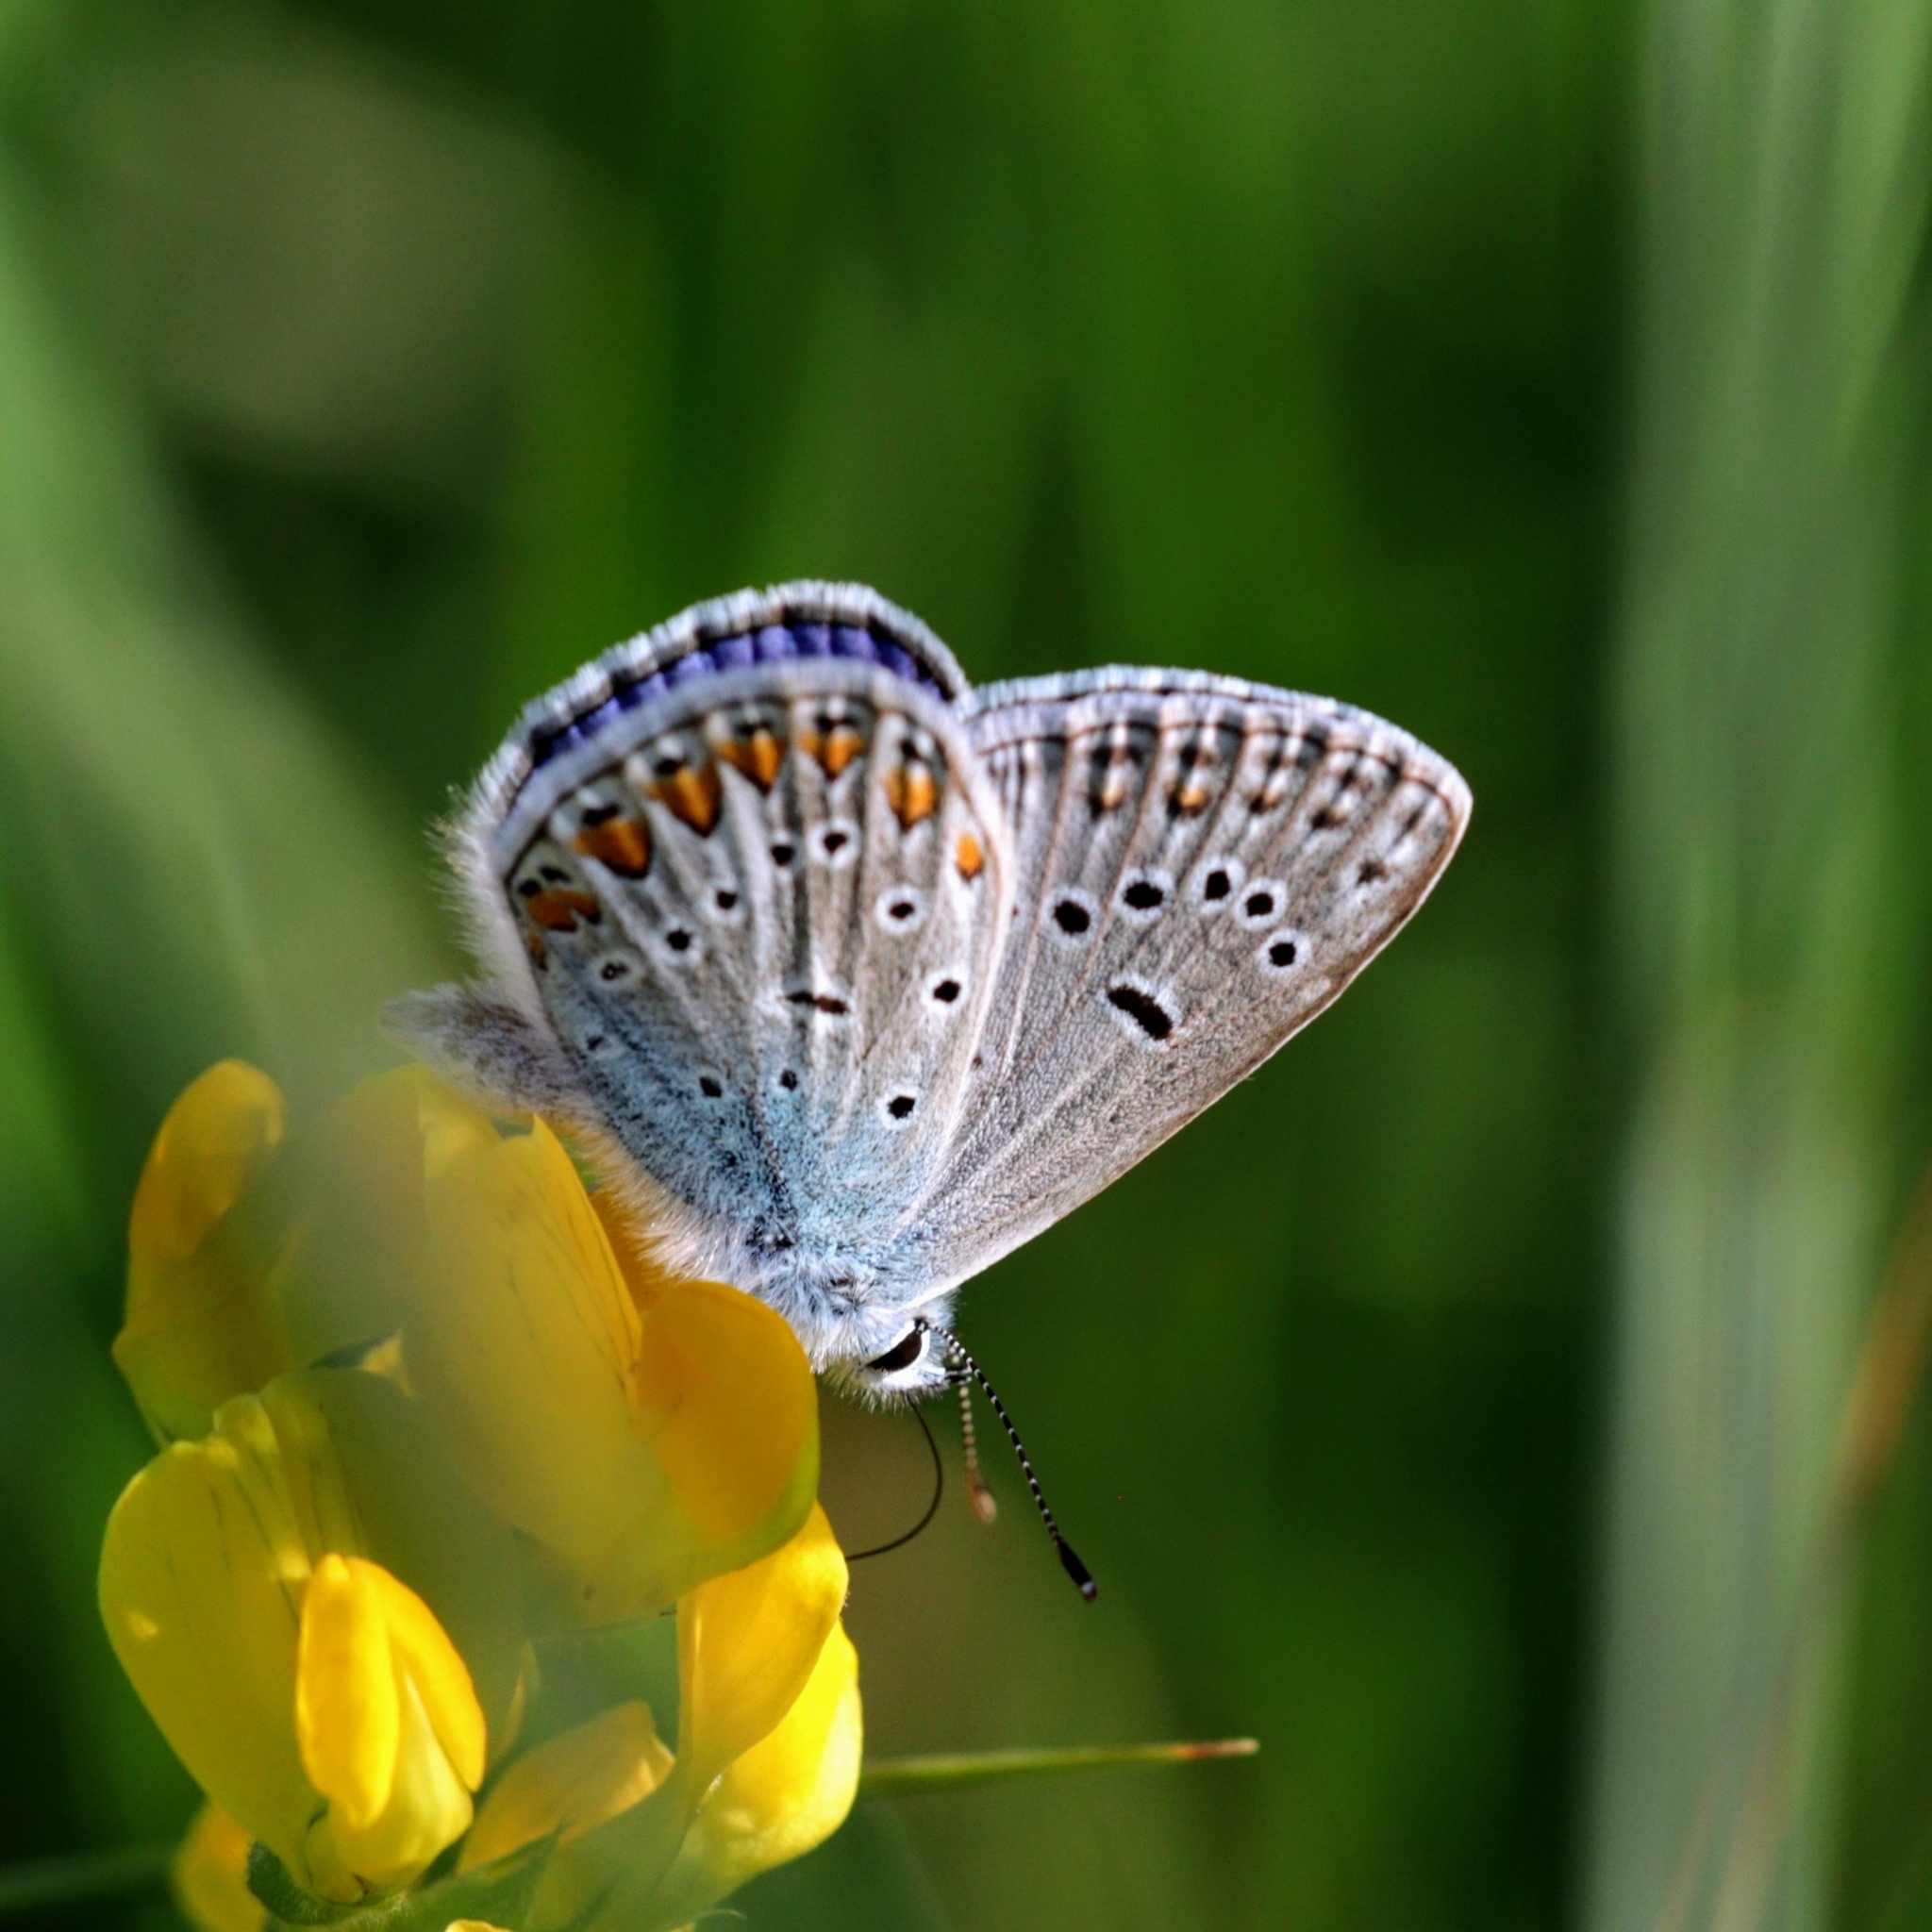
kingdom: Animalia
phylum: Arthropoda
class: Insecta
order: Lepidoptera
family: Lycaenidae
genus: Polyommatus
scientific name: Polyommatus icarus
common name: Common blue
